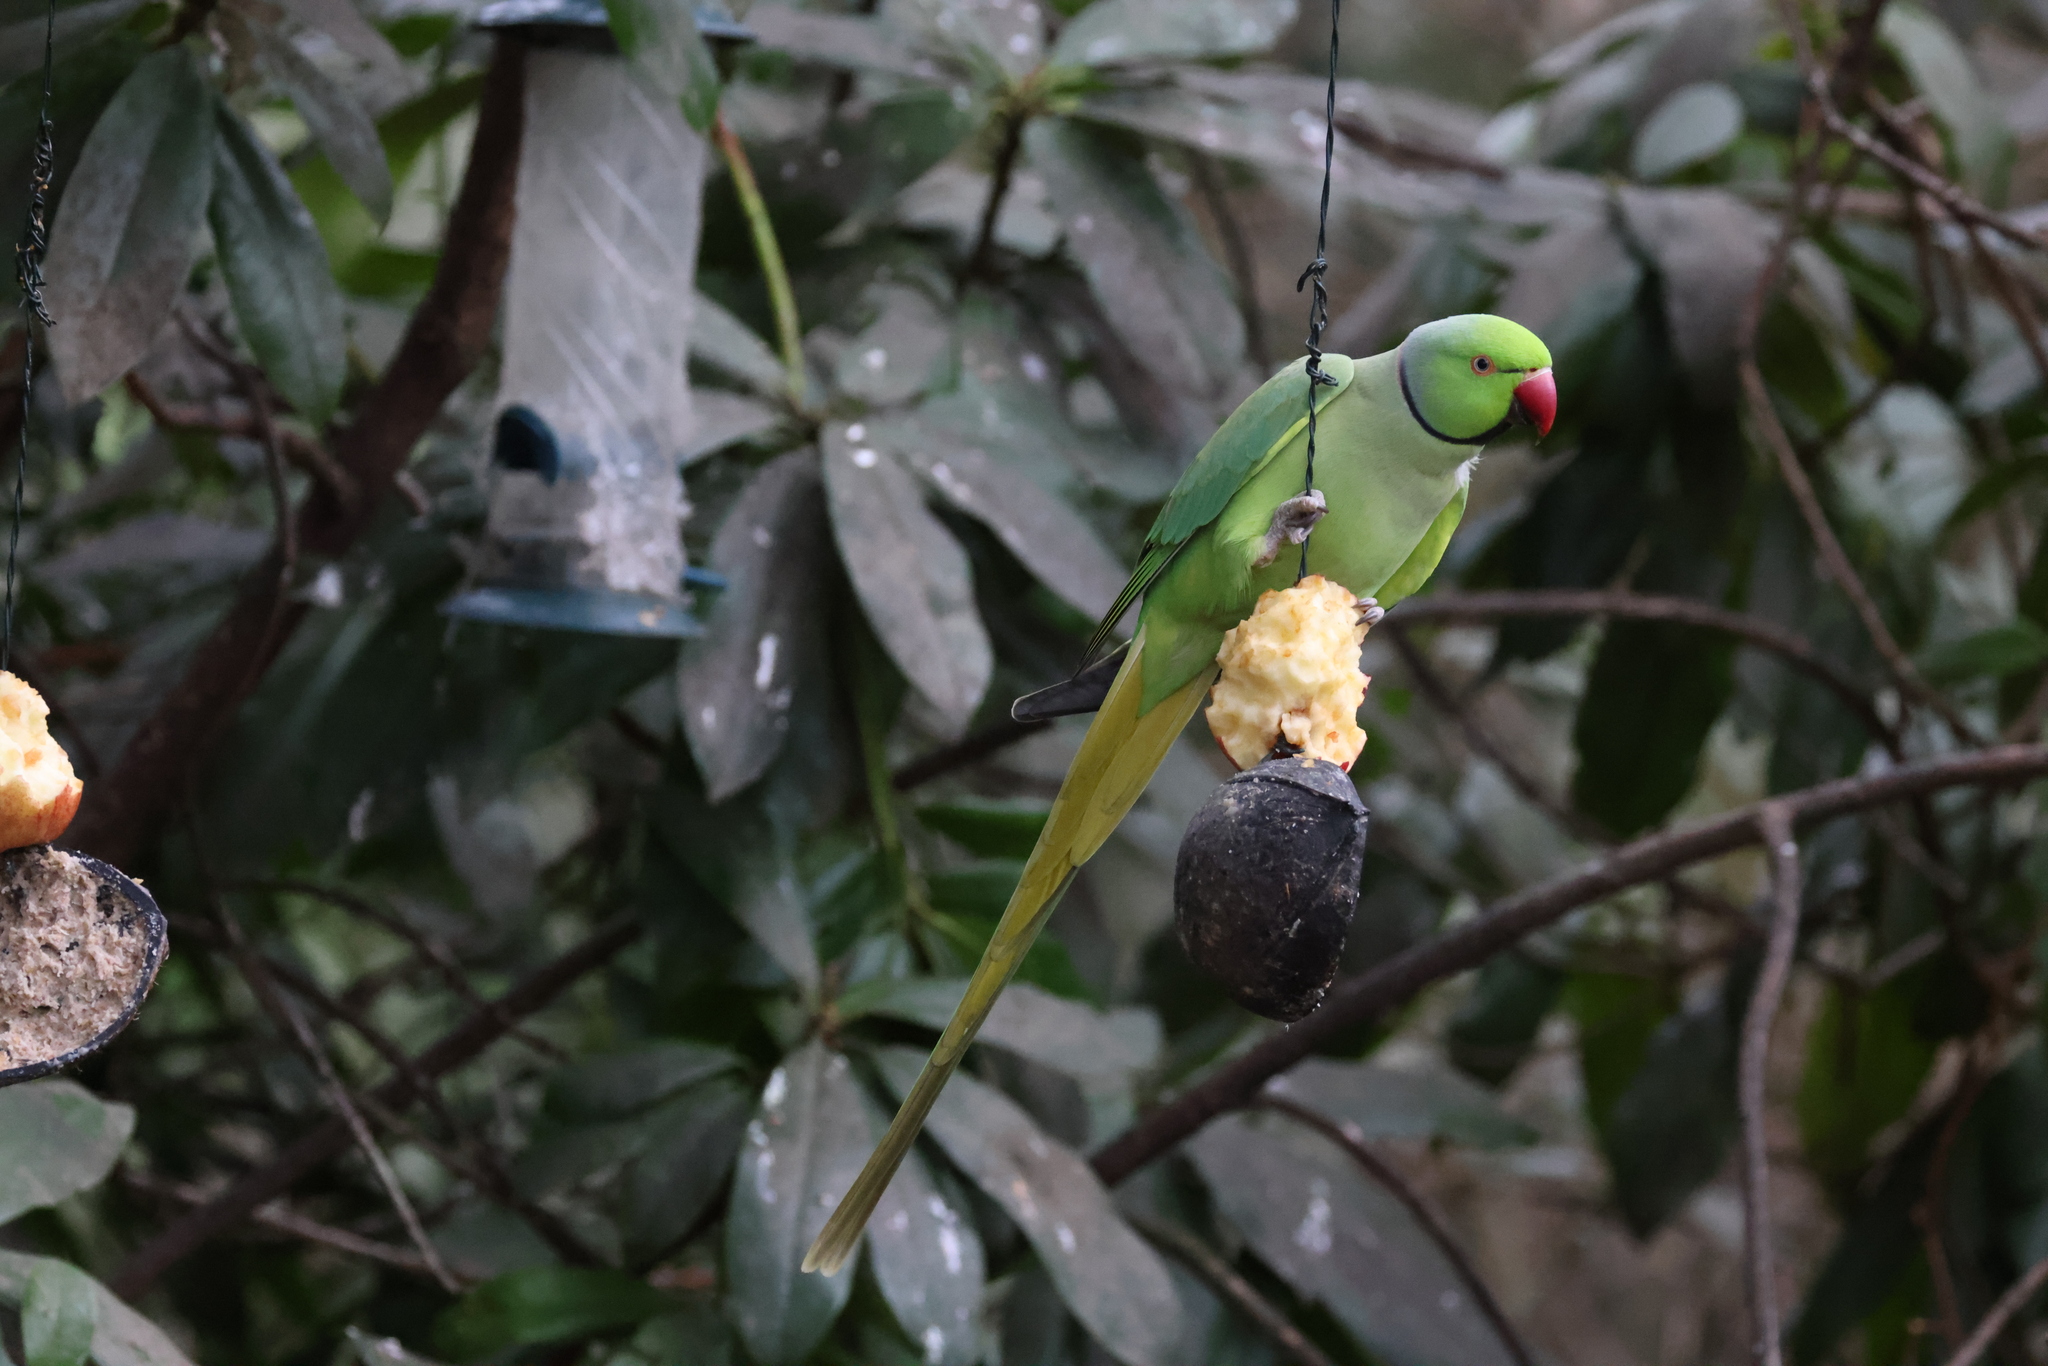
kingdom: Animalia
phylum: Chordata
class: Aves
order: Psittaciformes
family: Psittacidae
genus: Psittacula
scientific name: Psittacula krameri
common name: Rose-ringed parakeet
